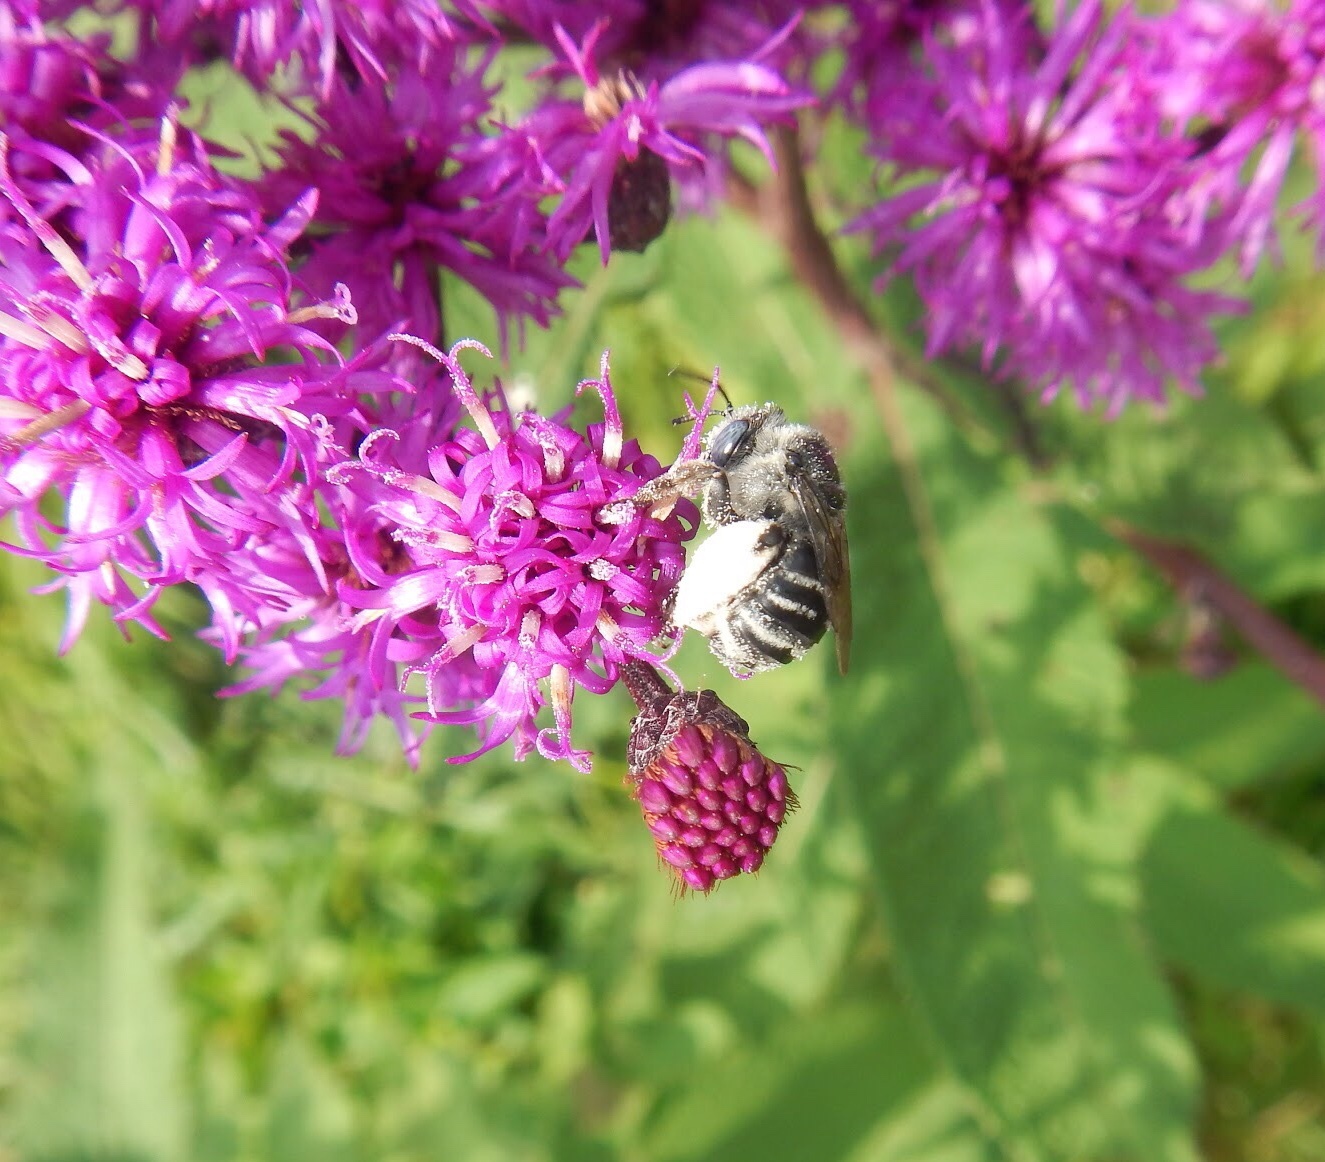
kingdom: Animalia
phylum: Arthropoda
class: Insecta
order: Hymenoptera
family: Apidae
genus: Melissodes
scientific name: Melissodes denticulatus
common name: Denticulate long-horned bee
